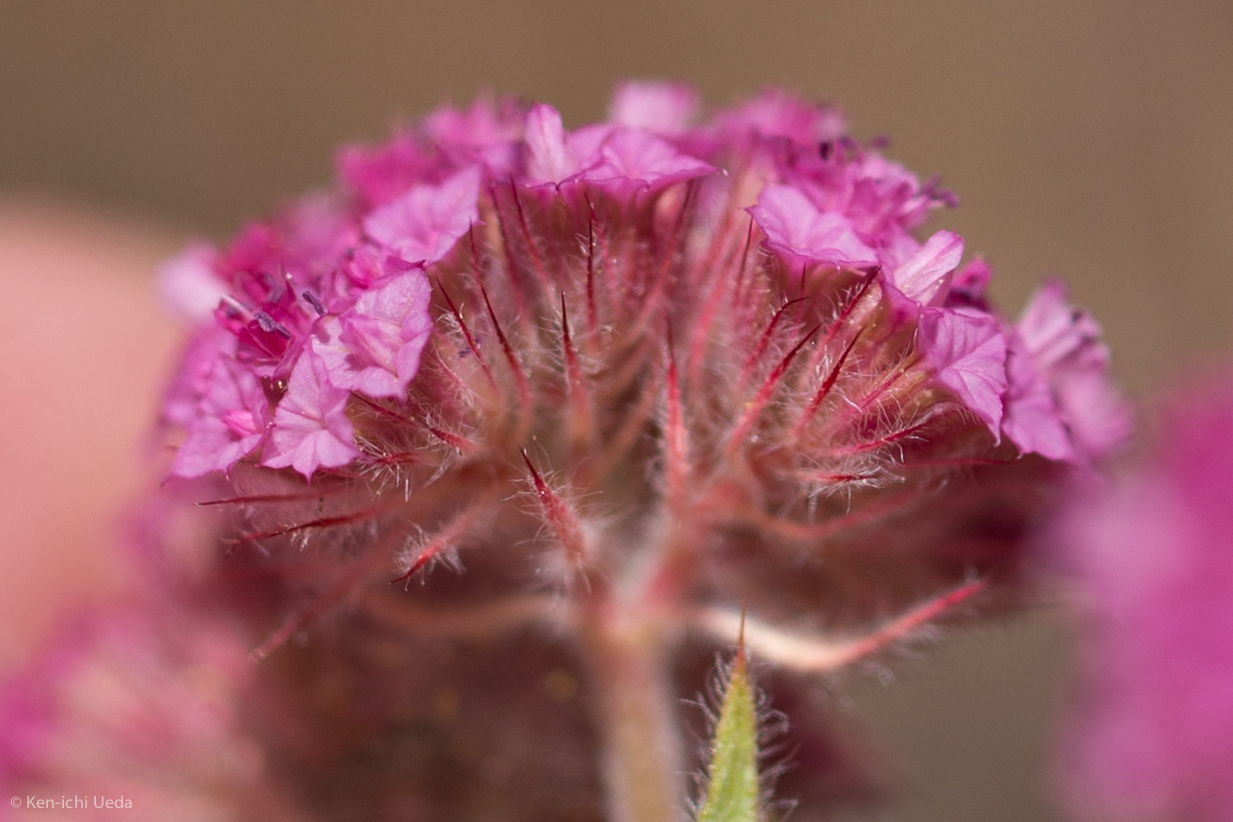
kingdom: Plantae
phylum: Tracheophyta
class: Magnoliopsida
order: Caryophyllales
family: Polygonaceae
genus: Chorizanthe
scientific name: Chorizanthe douglasii
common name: Douglas's spineflower
